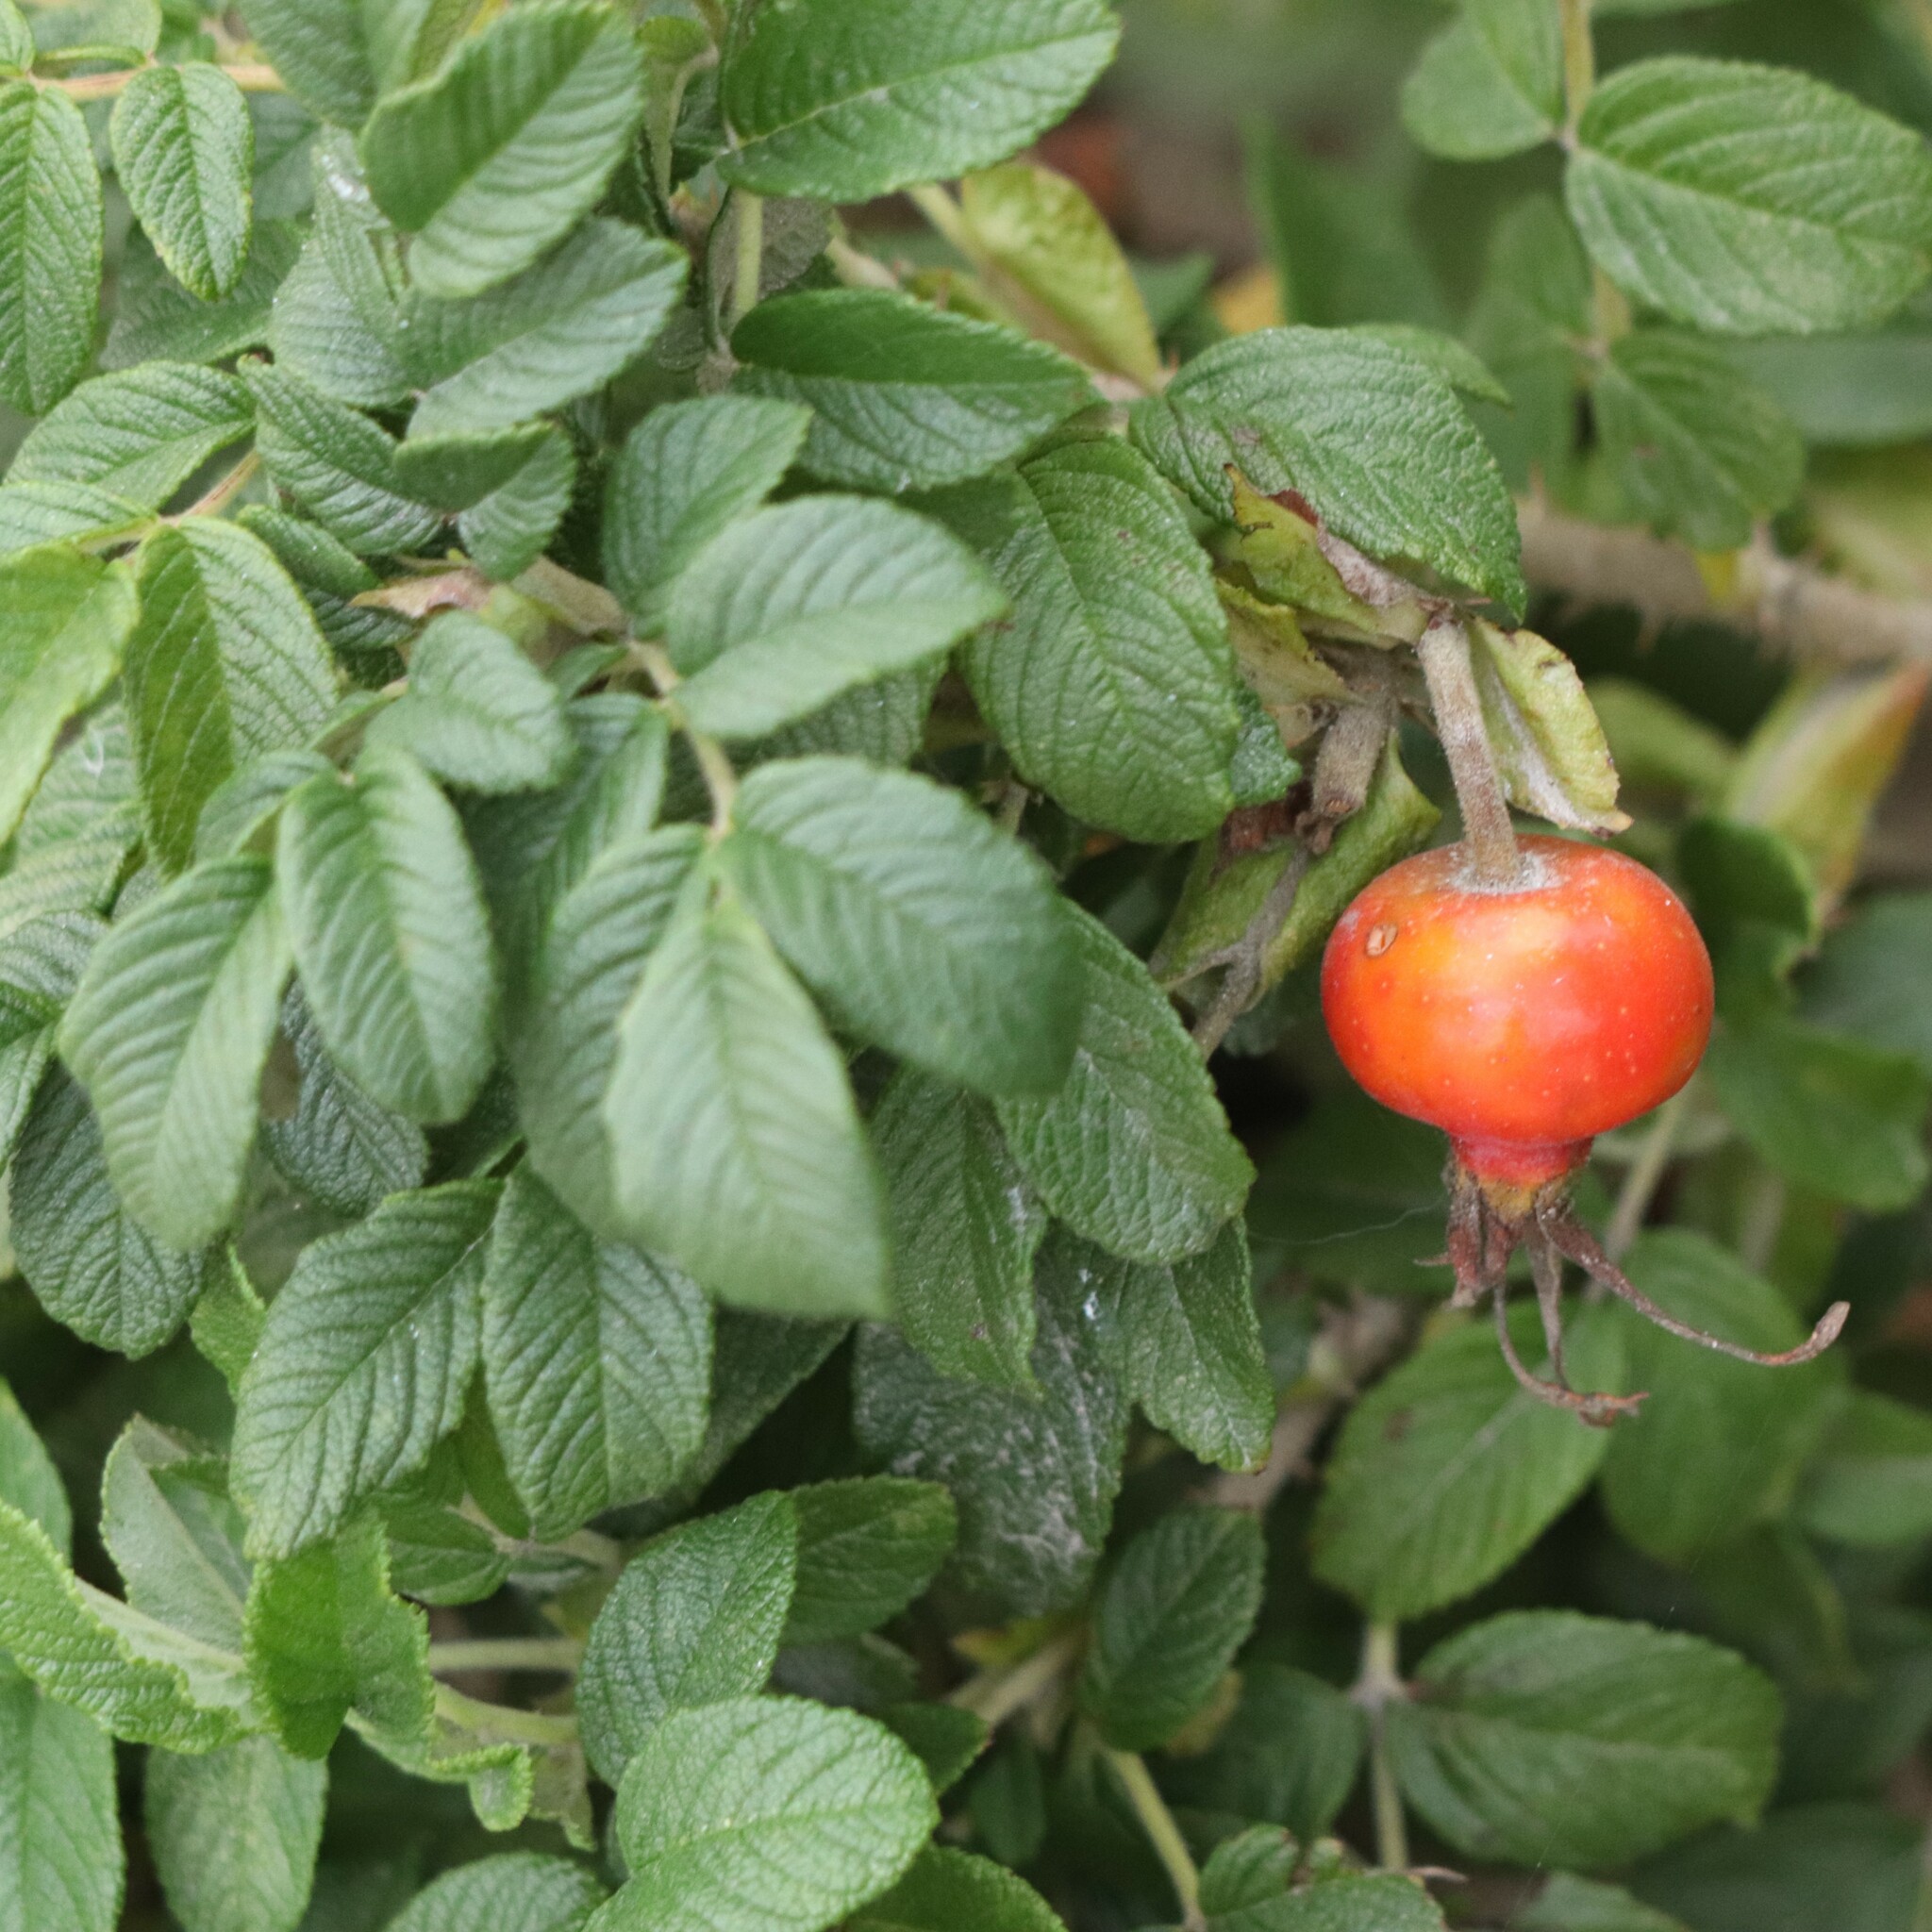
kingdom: Plantae
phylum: Tracheophyta
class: Magnoliopsida
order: Rosales
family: Rosaceae
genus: Rosa
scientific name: Rosa rugosa
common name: Japanese rose
